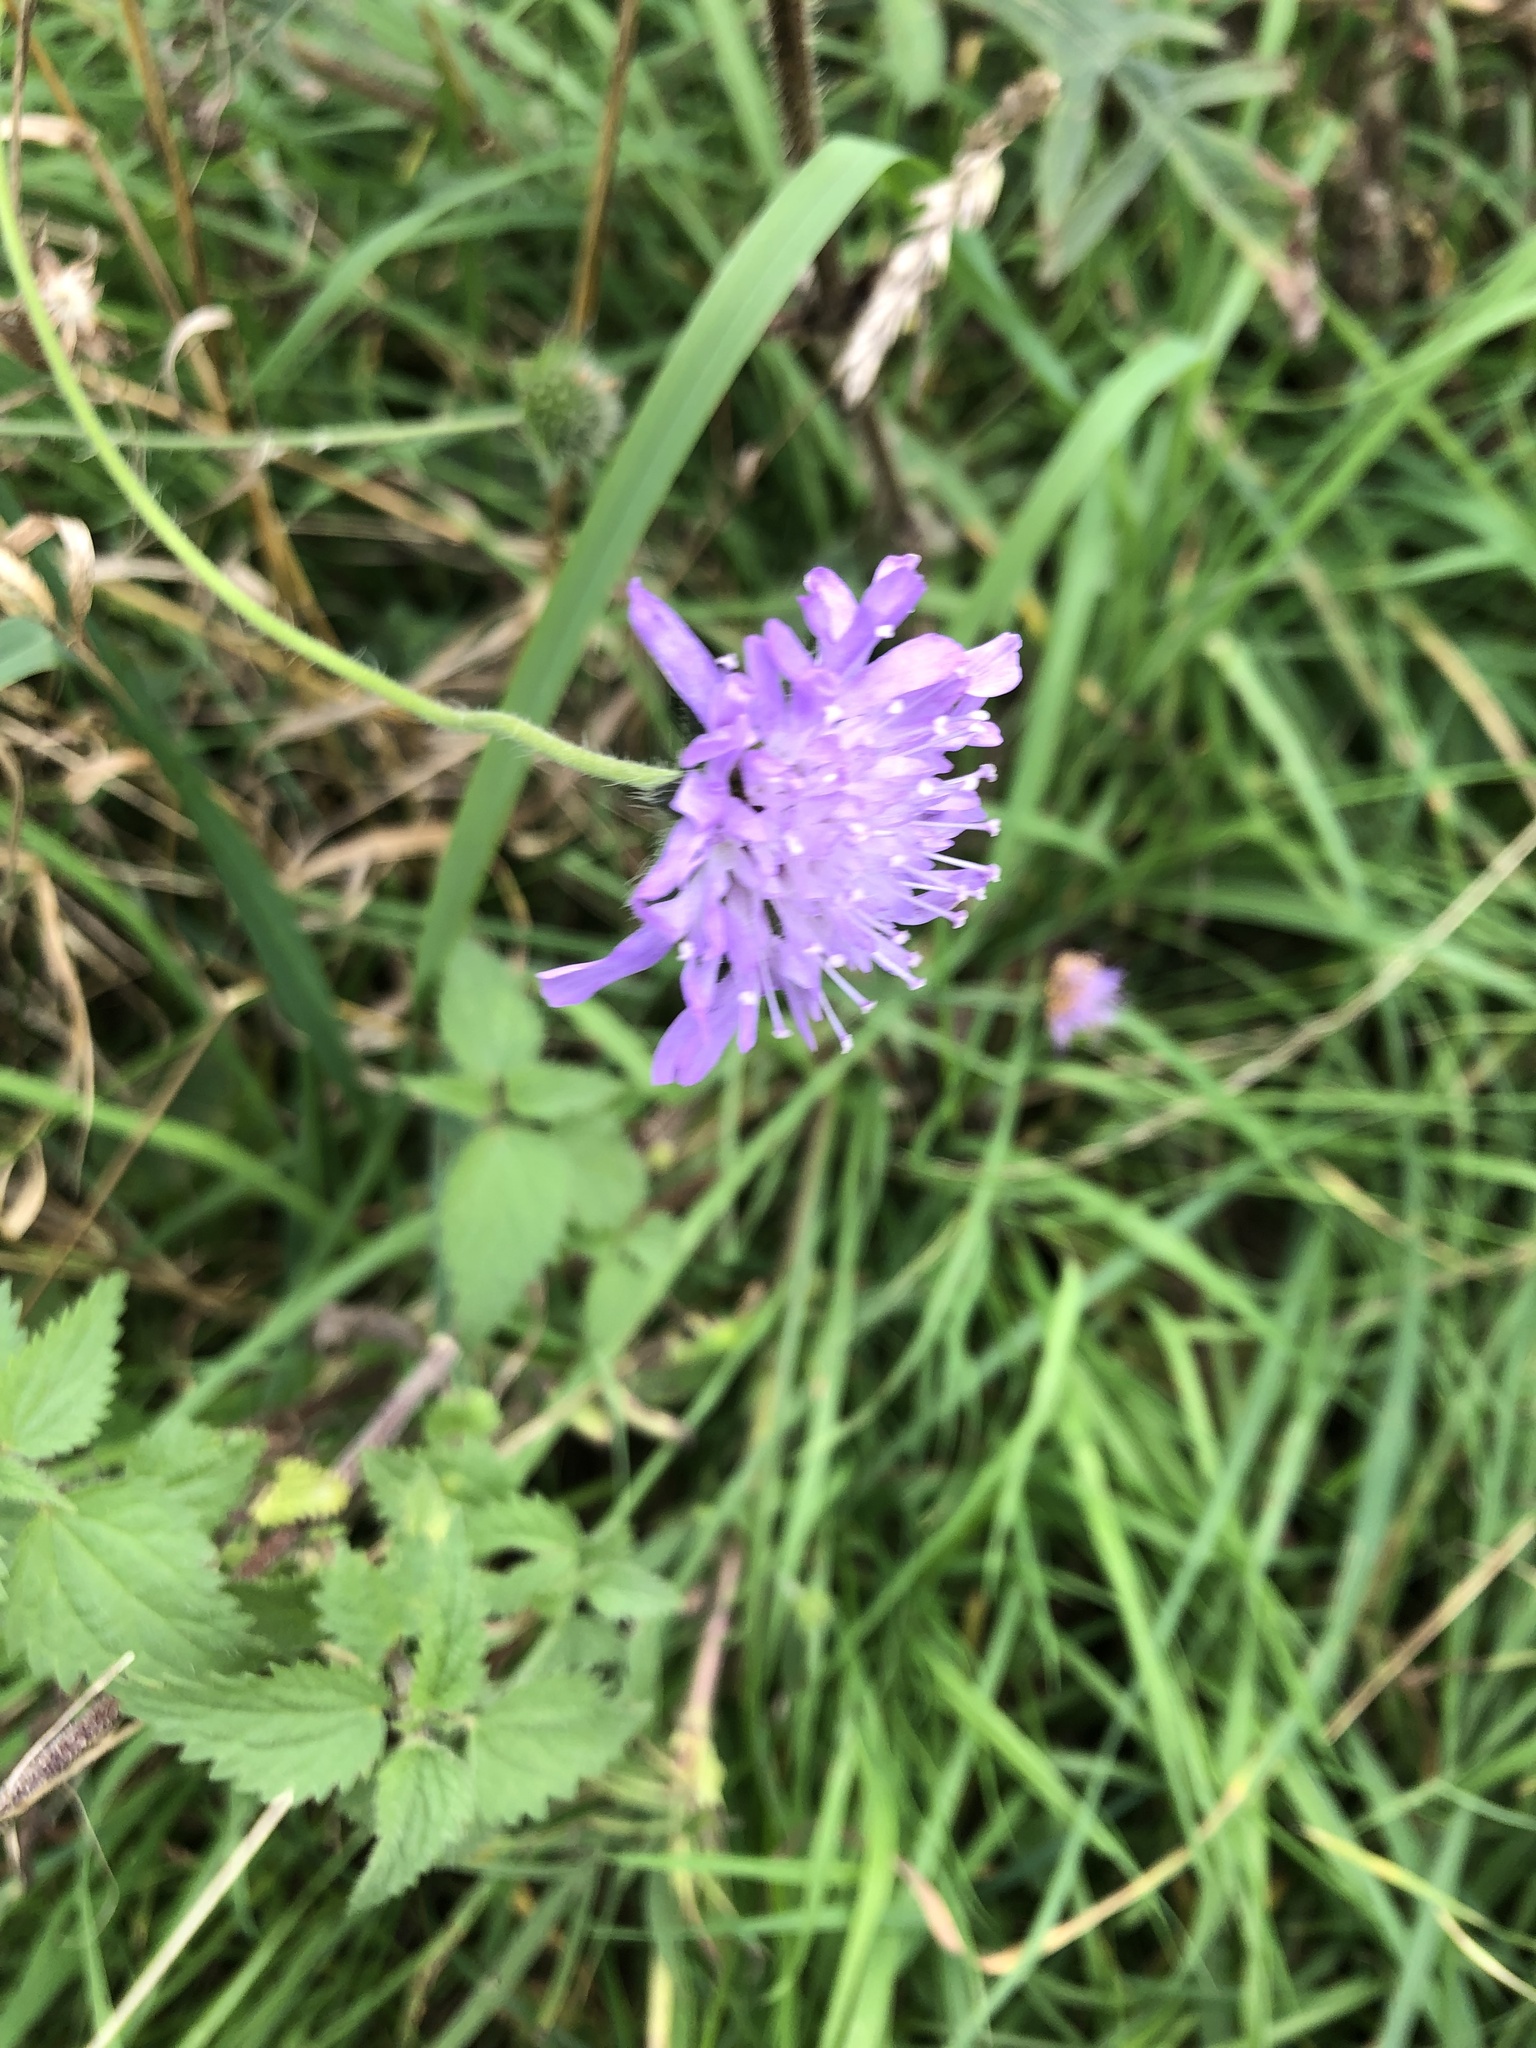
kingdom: Plantae
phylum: Tracheophyta
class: Magnoliopsida
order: Dipsacales
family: Caprifoliaceae
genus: Knautia
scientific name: Knautia arvensis
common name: Field scabiosa
